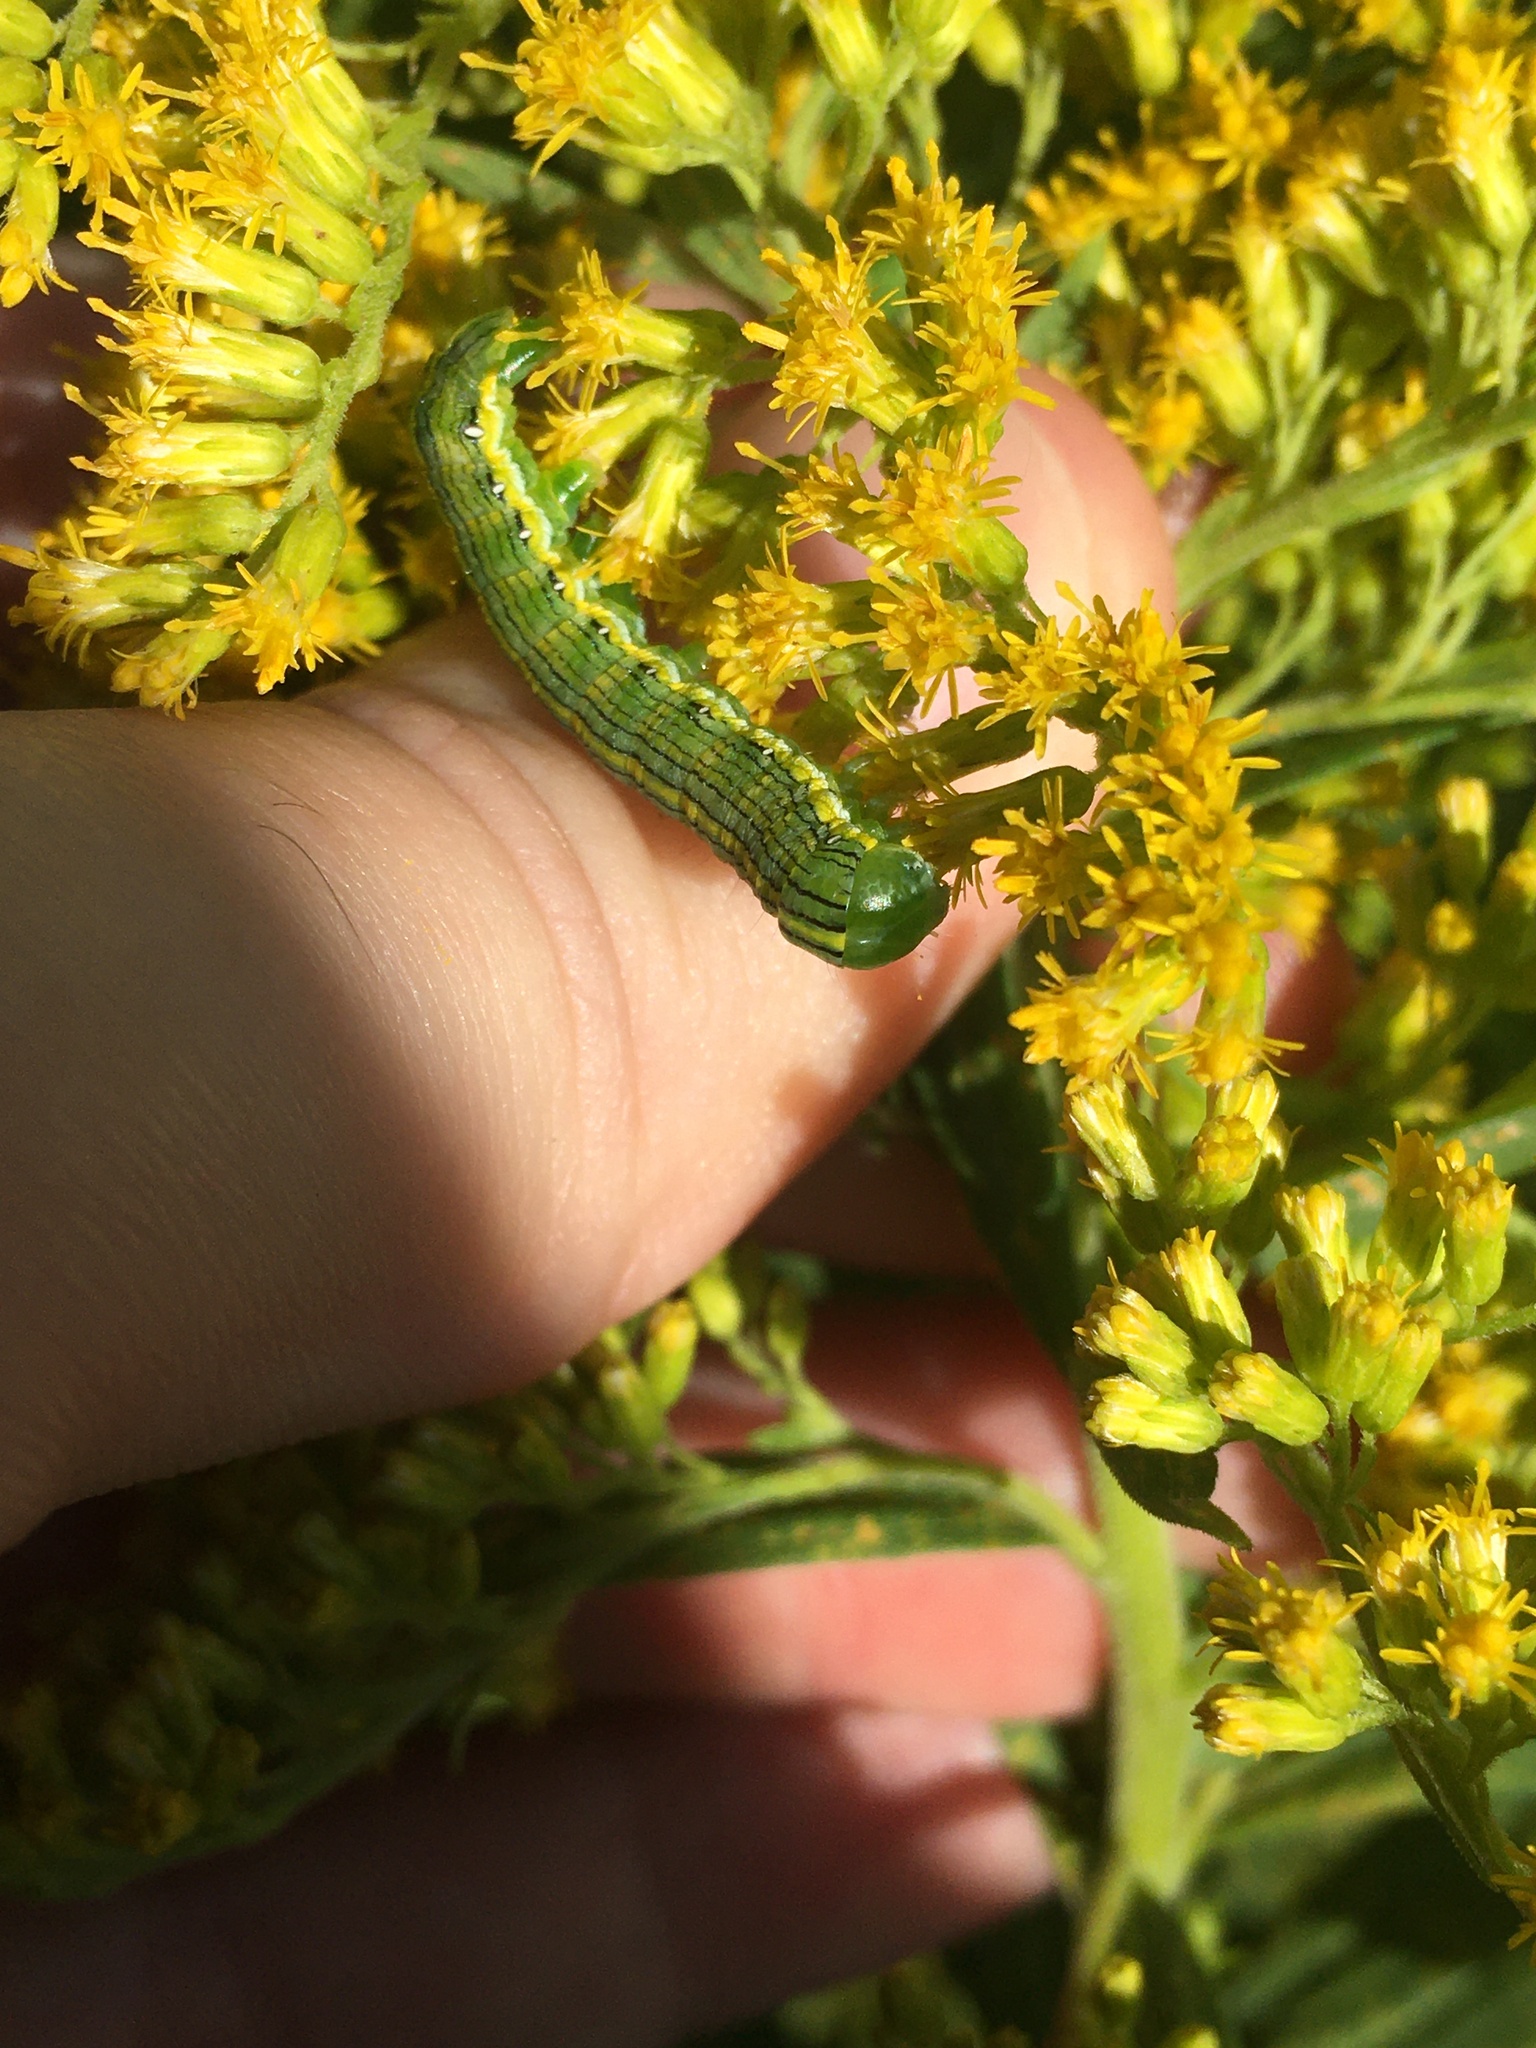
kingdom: Animalia
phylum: Arthropoda
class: Insecta
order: Lepidoptera
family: Noctuidae
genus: Cucullia
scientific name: Cucullia asteroides
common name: Asteroid moth
